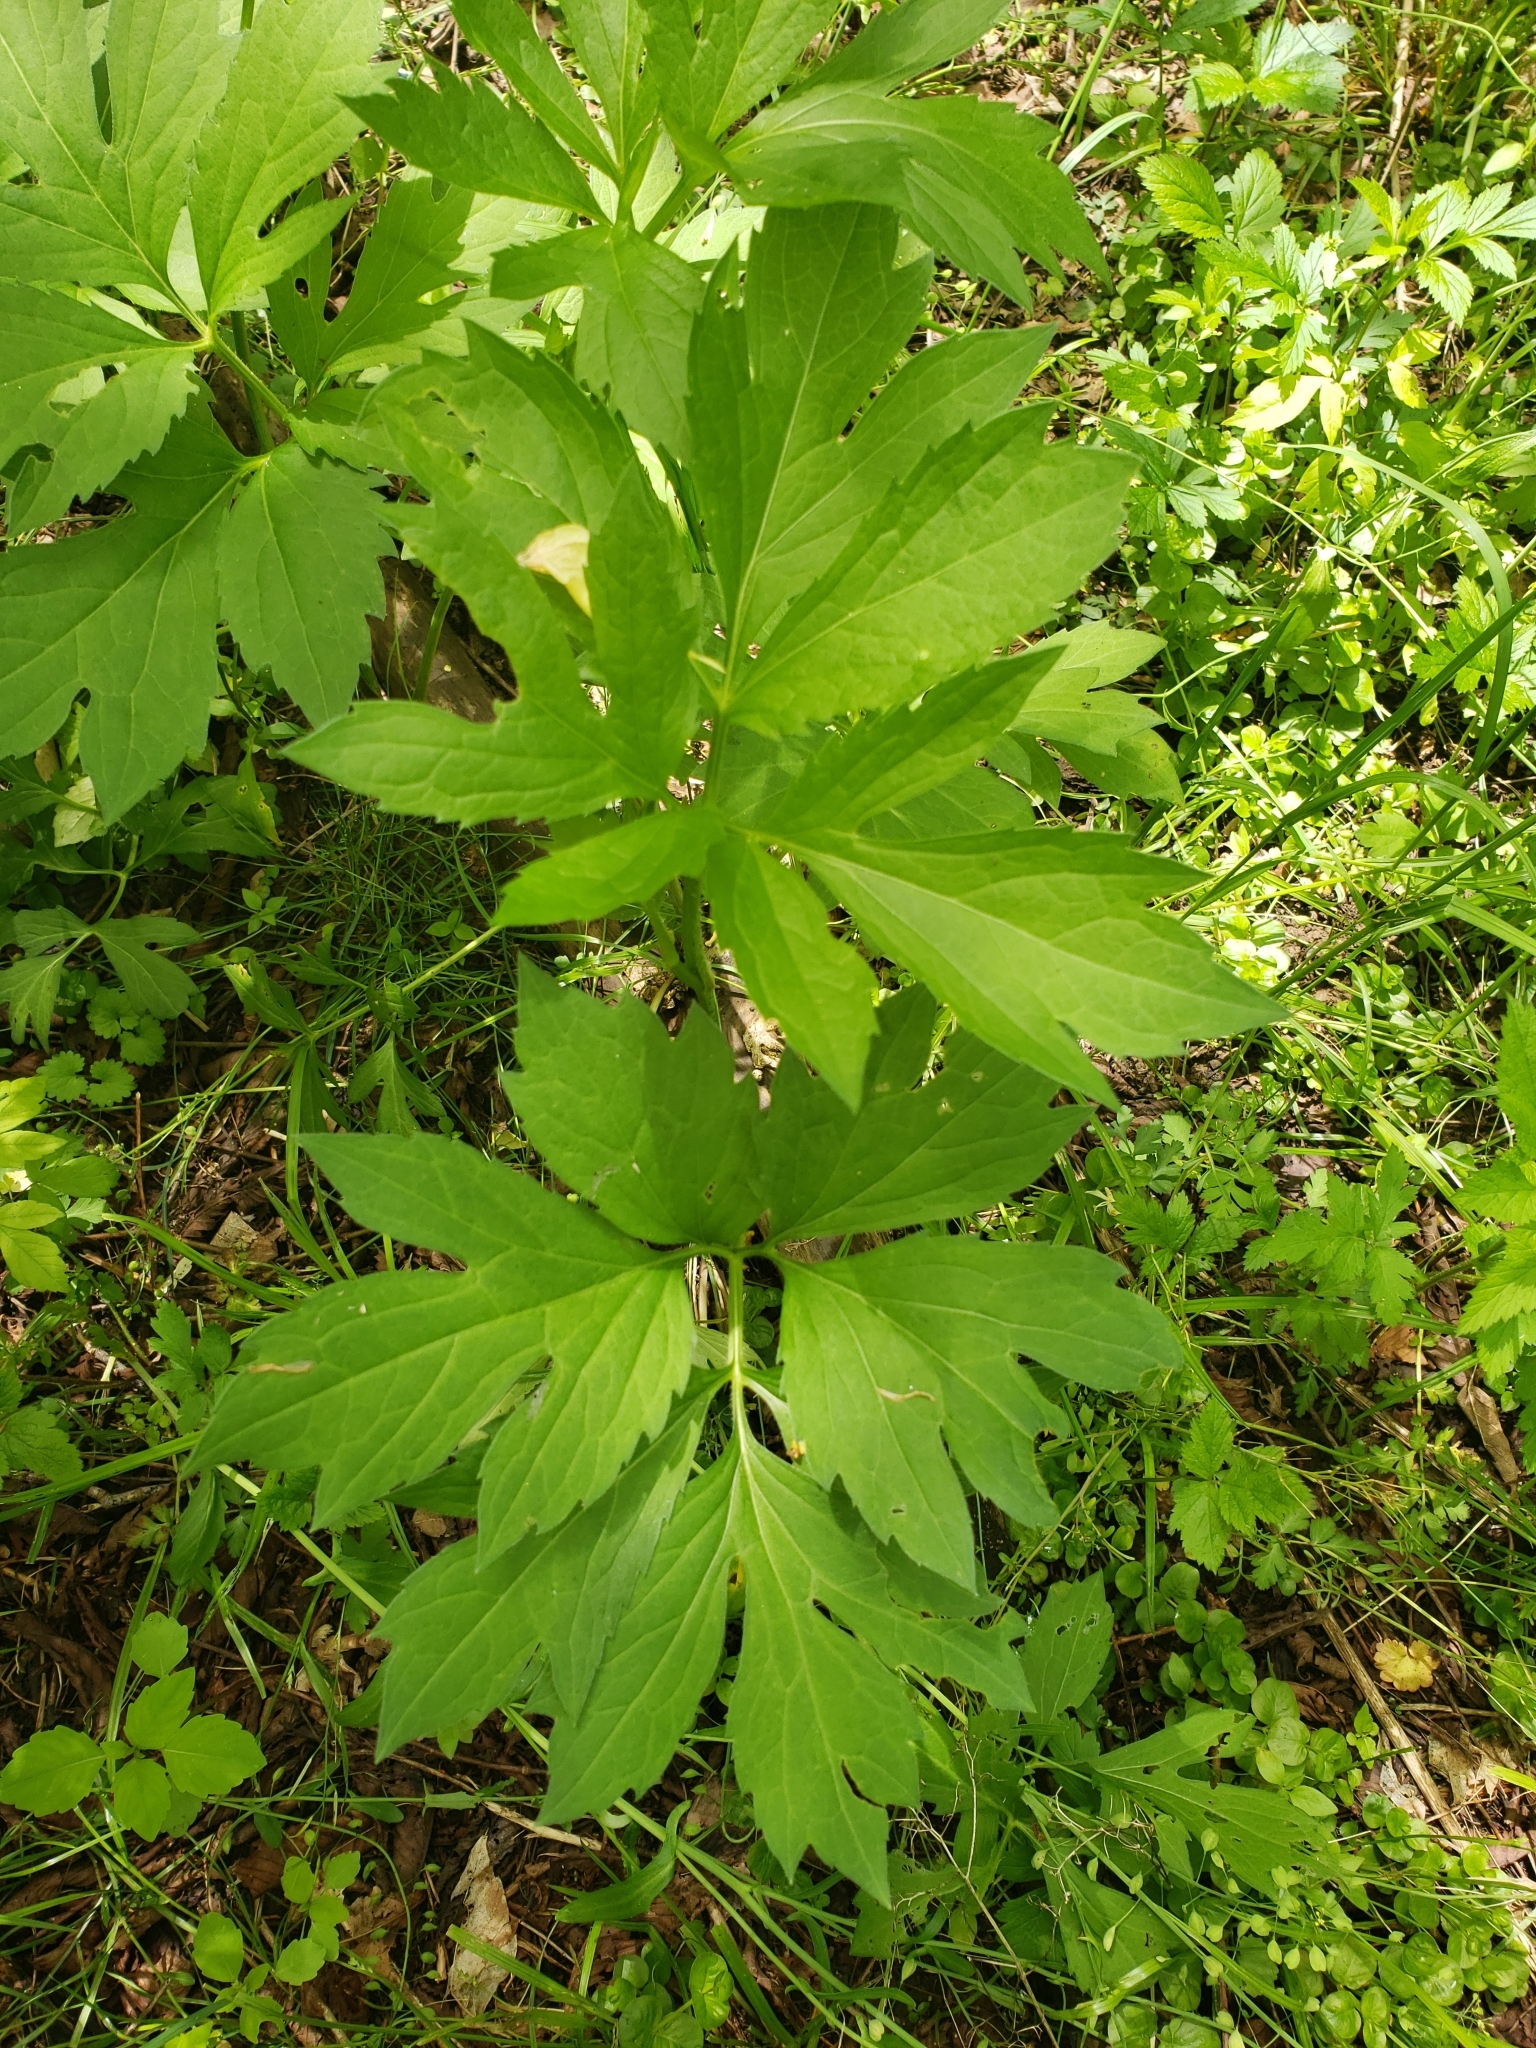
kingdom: Plantae
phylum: Tracheophyta
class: Magnoliopsida
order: Asterales
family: Asteraceae
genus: Rudbeckia
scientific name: Rudbeckia laciniata
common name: Coneflower
